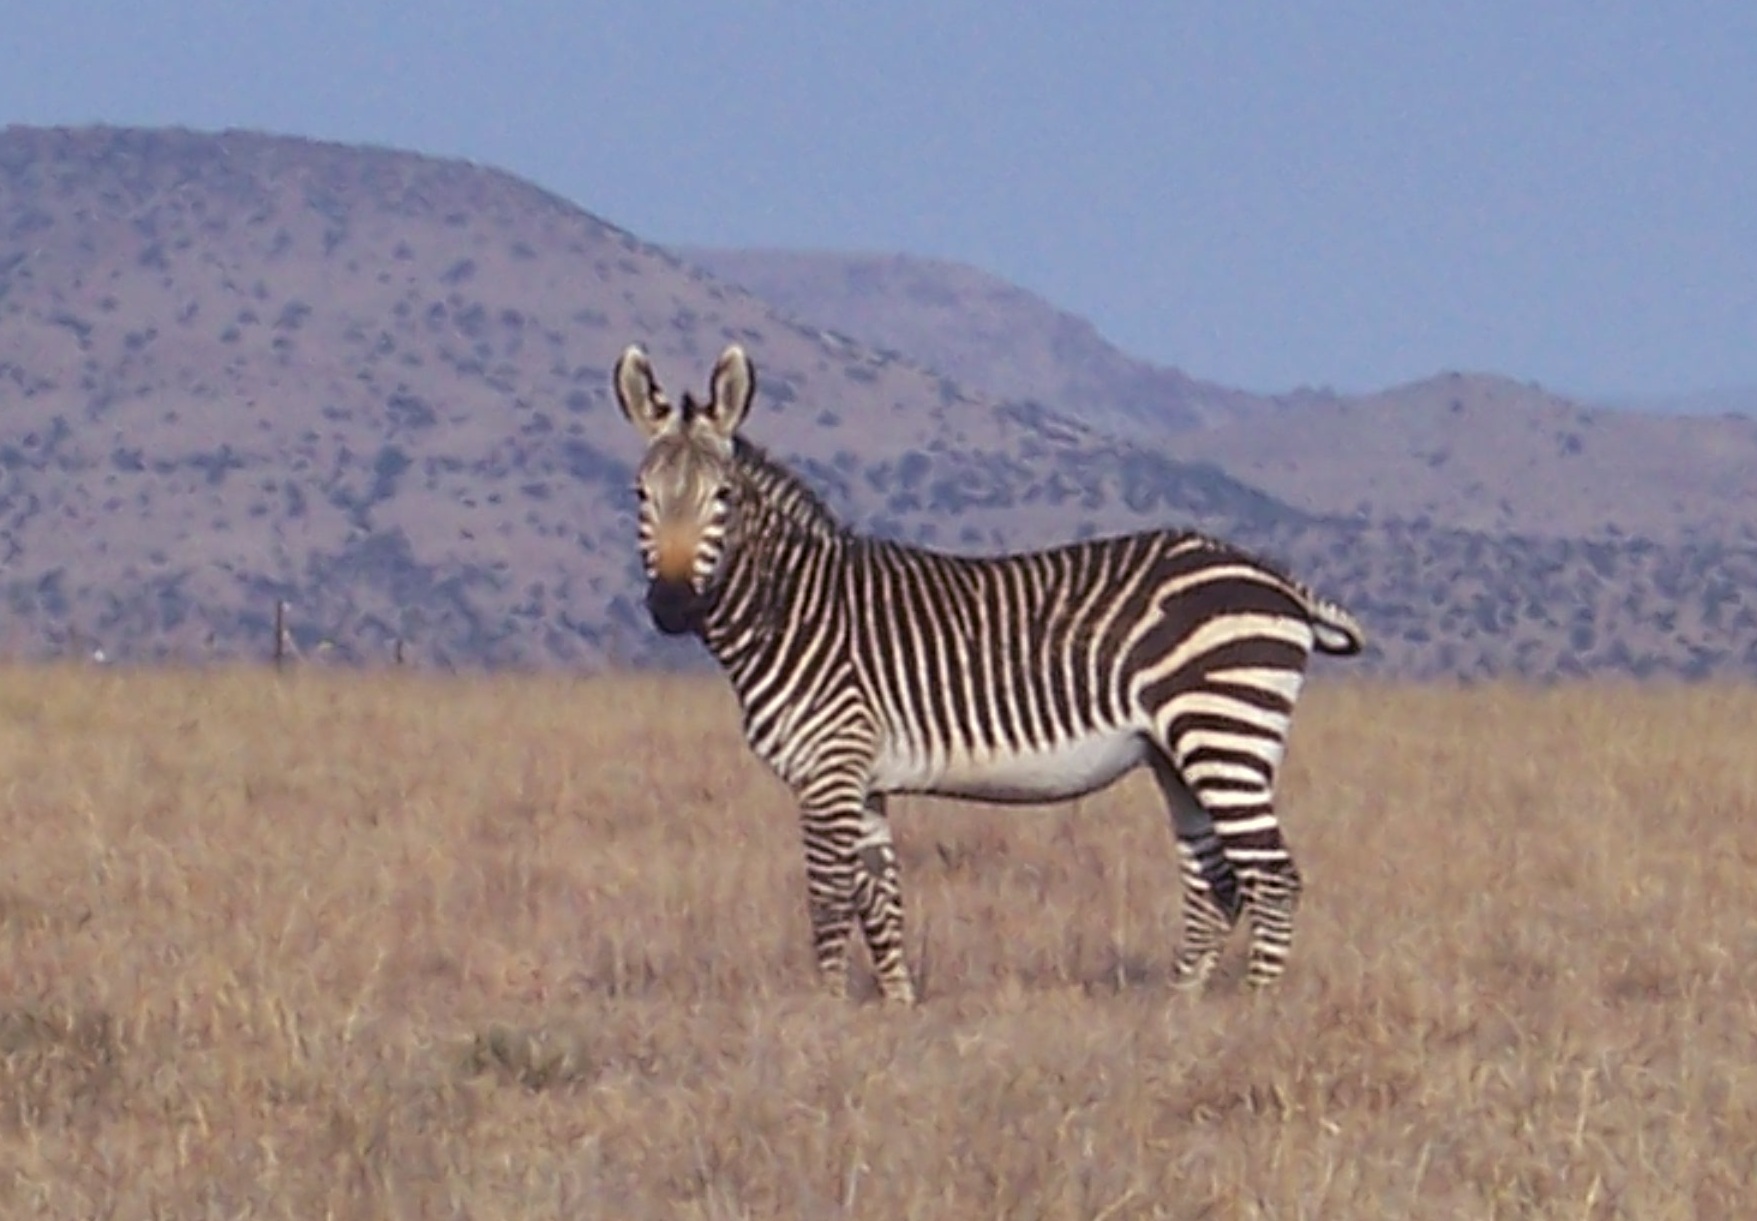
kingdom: Animalia
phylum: Chordata
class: Mammalia
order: Perissodactyla
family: Equidae
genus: Equus
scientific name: Equus zebra
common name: Mountain zebra
